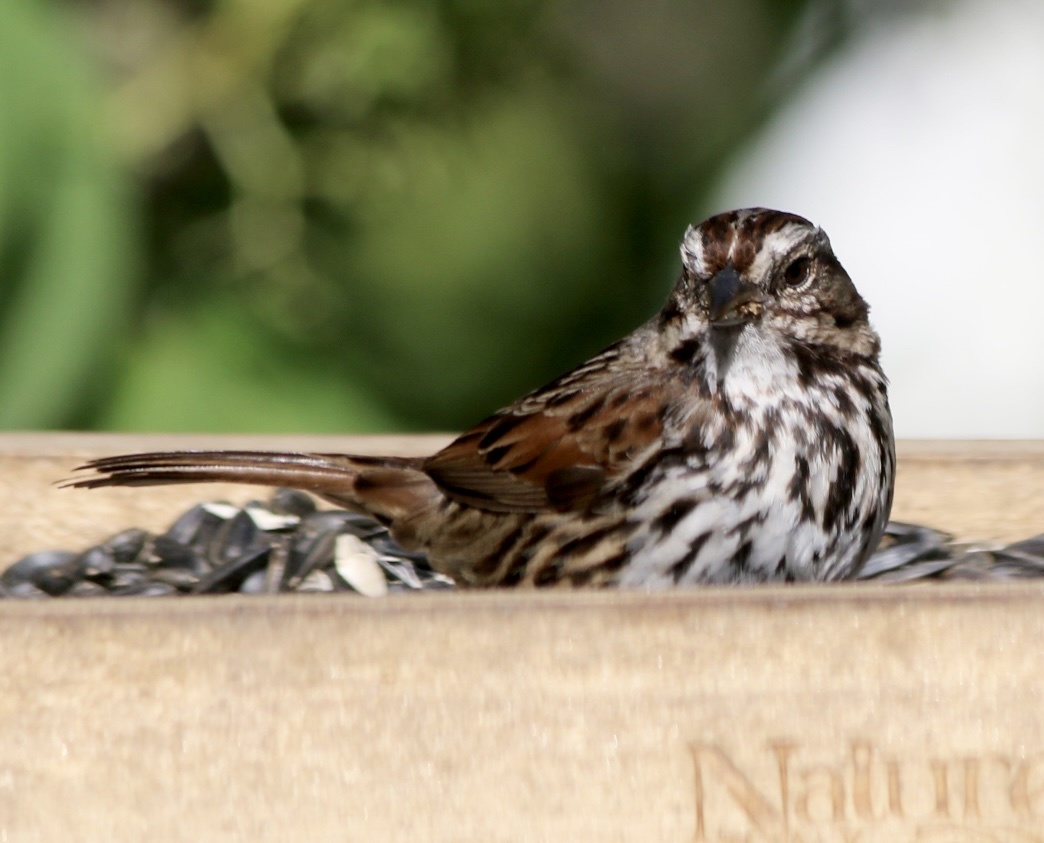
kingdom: Animalia
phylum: Chordata
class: Aves
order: Passeriformes
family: Passerellidae
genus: Melospiza
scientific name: Melospiza melodia
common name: Song sparrow
